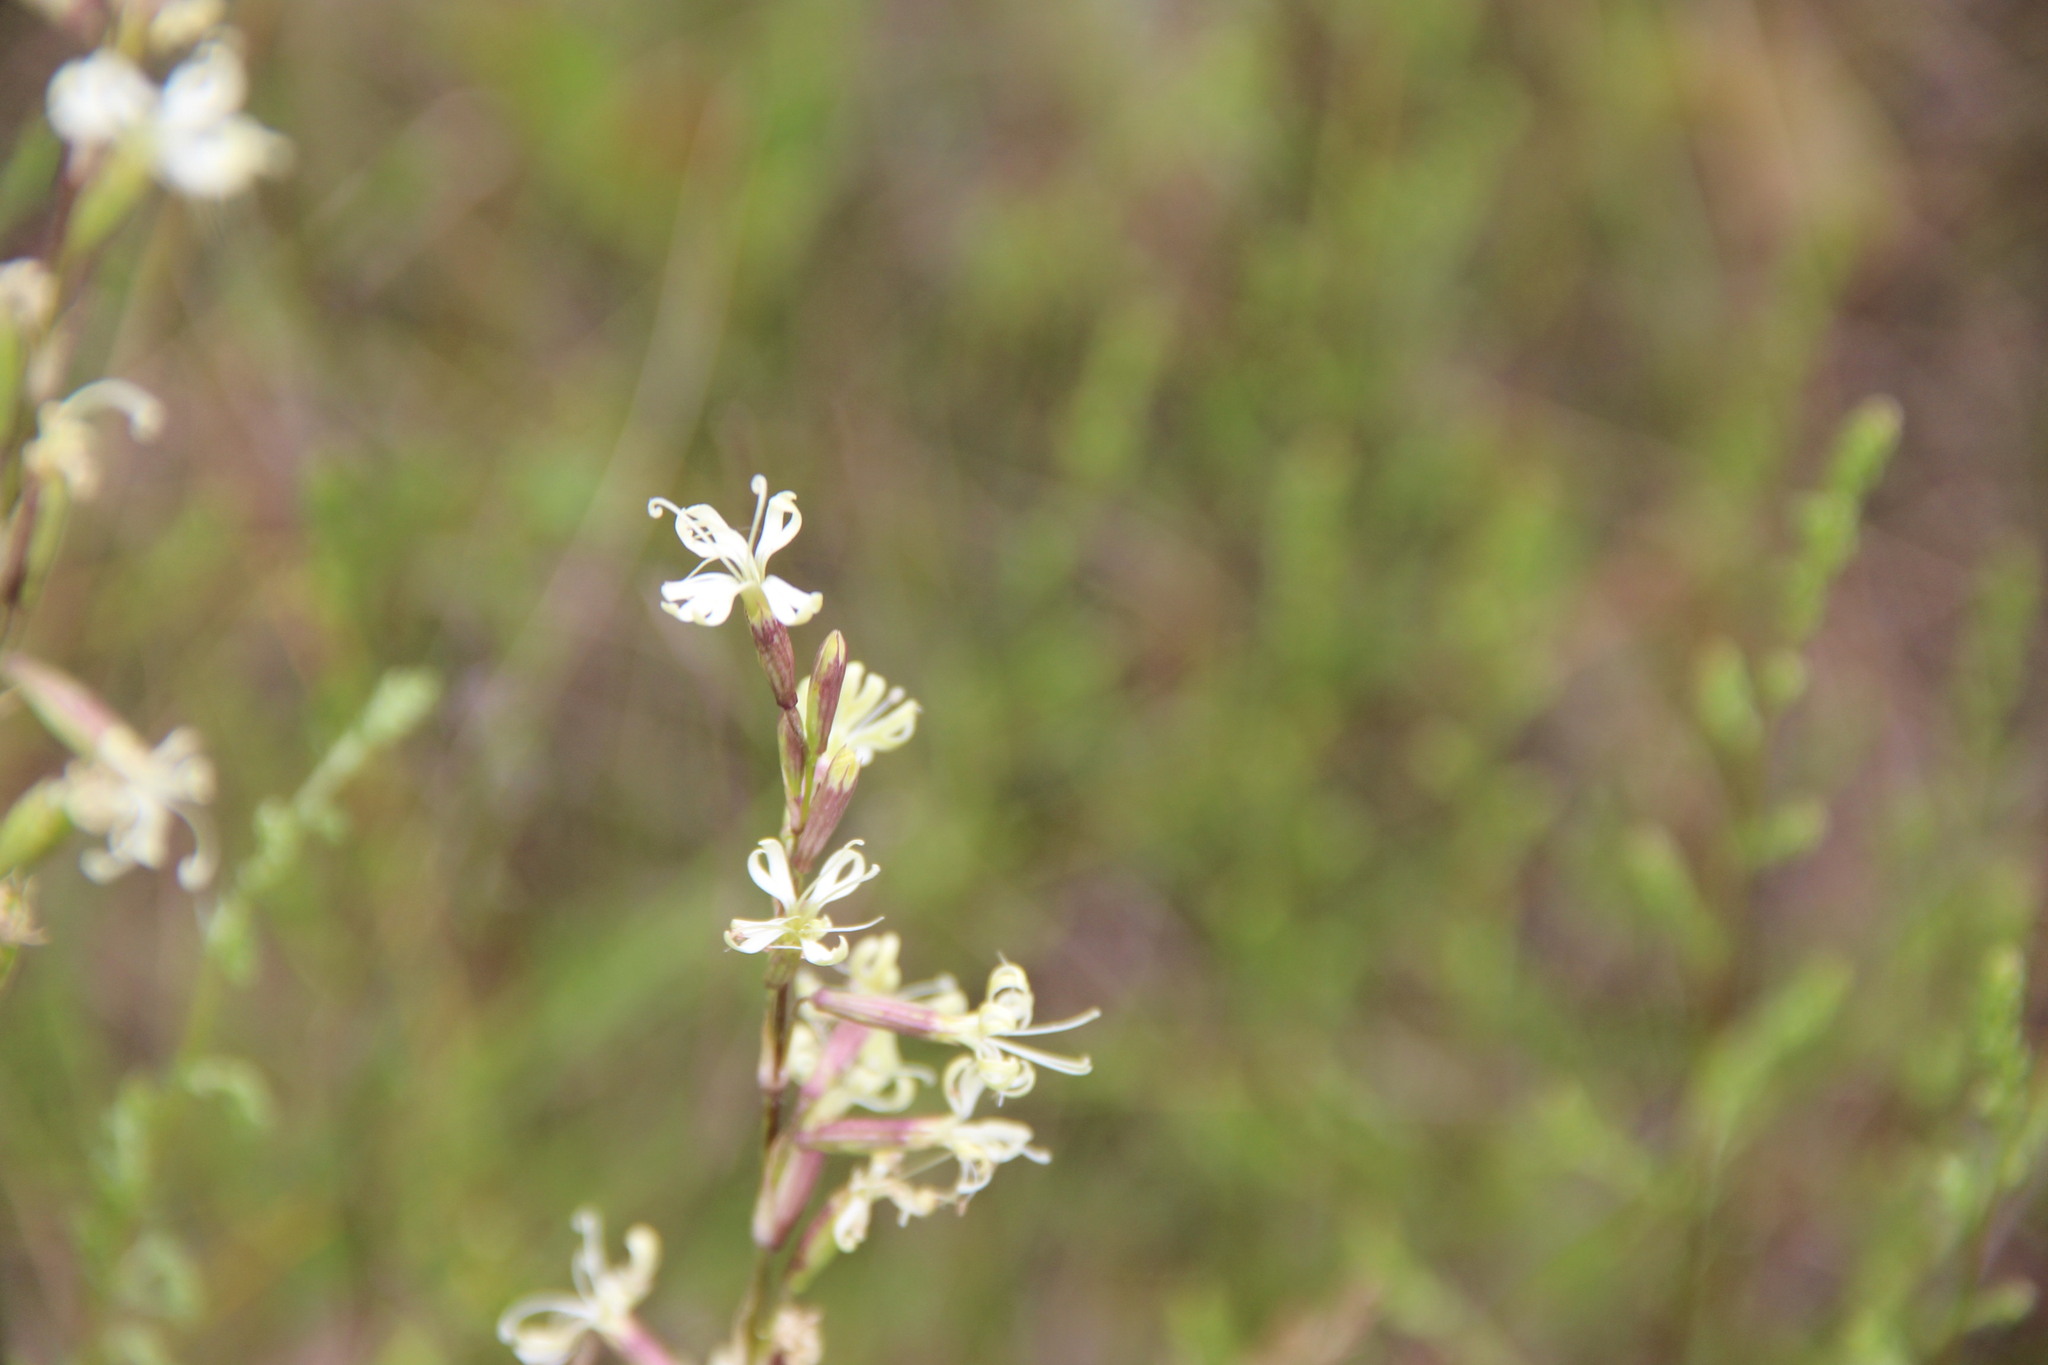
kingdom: Plantae
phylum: Tracheophyta
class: Magnoliopsida
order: Caryophyllales
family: Caryophyllaceae
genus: Silene
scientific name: Silene tatarica
